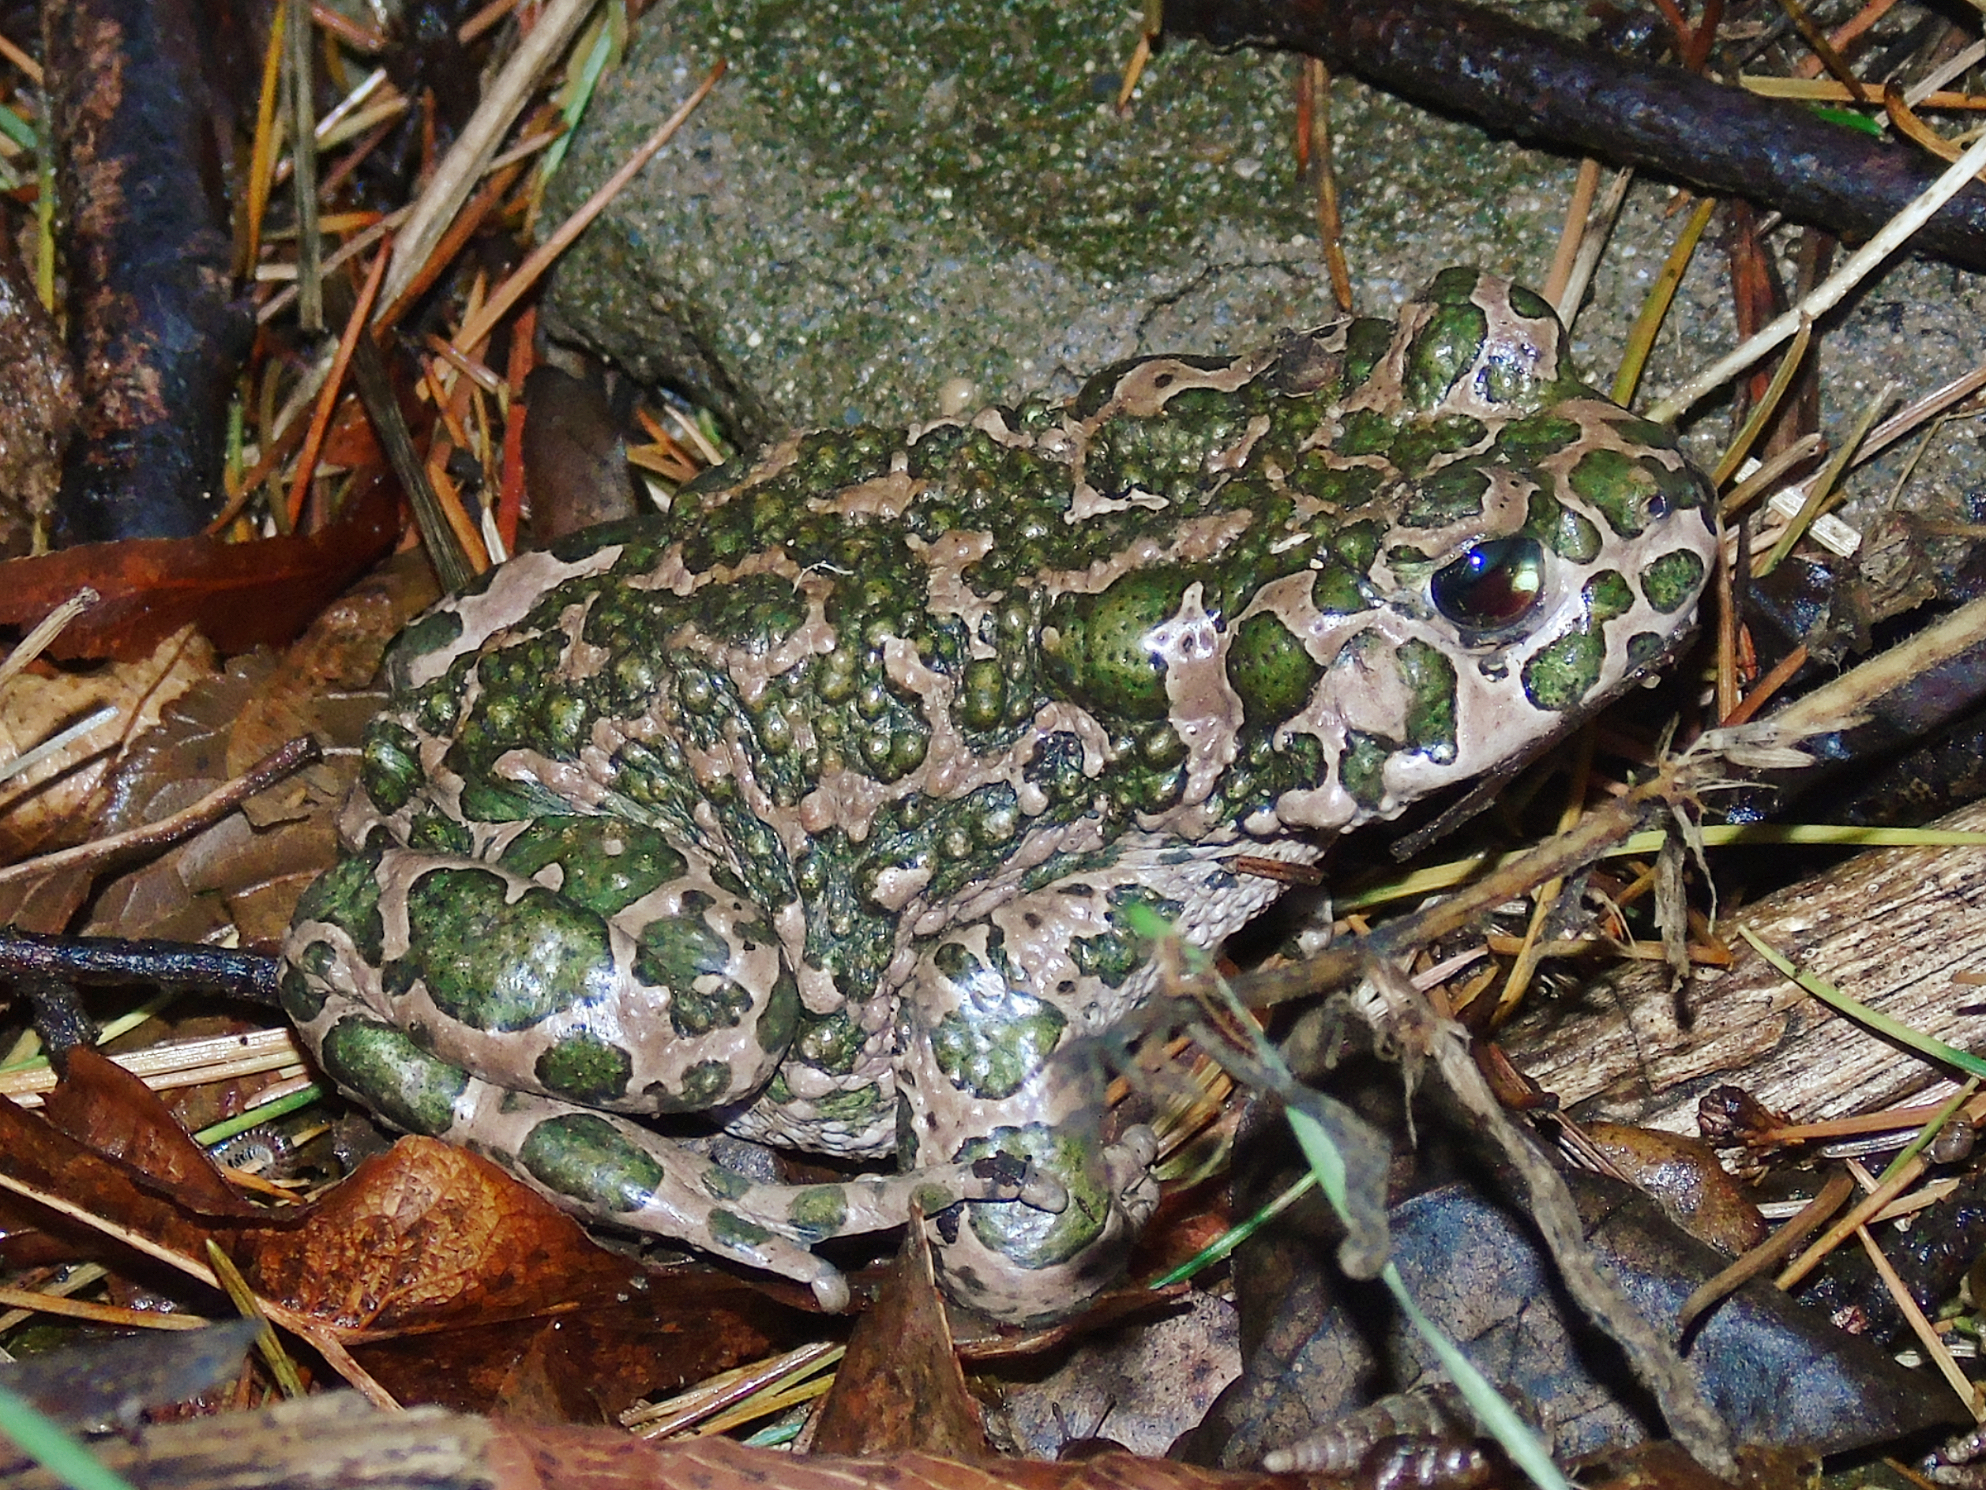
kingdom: Animalia
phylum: Chordata
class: Amphibia
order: Anura
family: Bufonidae
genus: Bufotes
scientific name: Bufotes viridis
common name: European green toad
